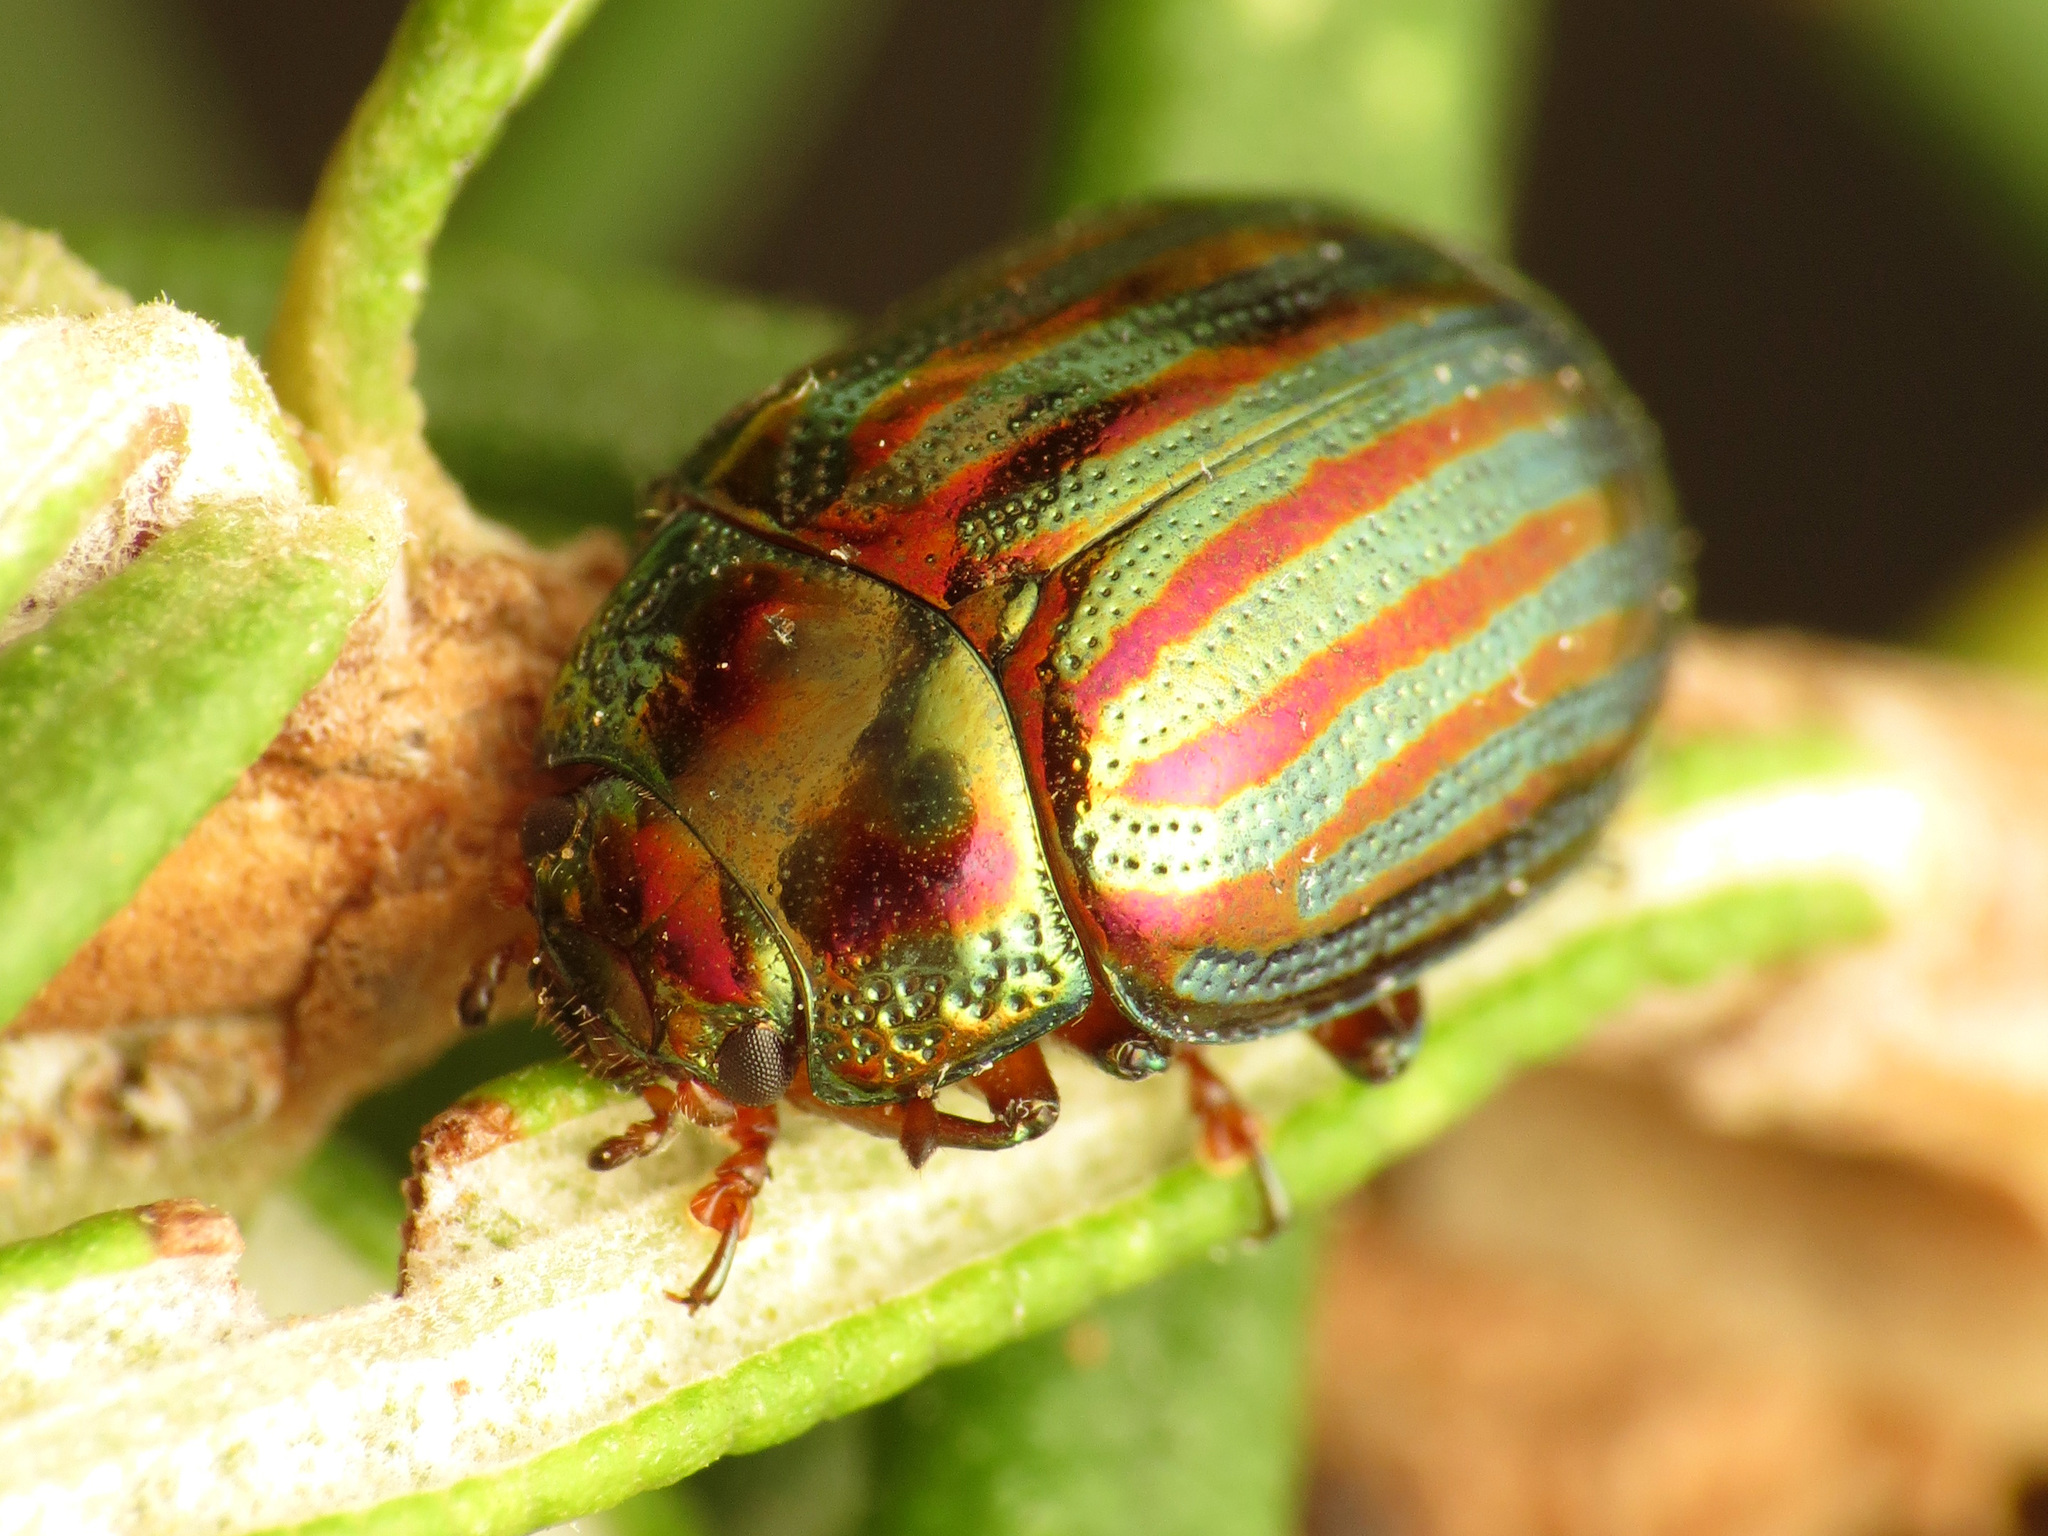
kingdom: Animalia
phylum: Arthropoda
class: Insecta
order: Coleoptera
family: Chrysomelidae
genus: Chrysolina
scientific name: Chrysolina americana
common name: Rosemary beetle
